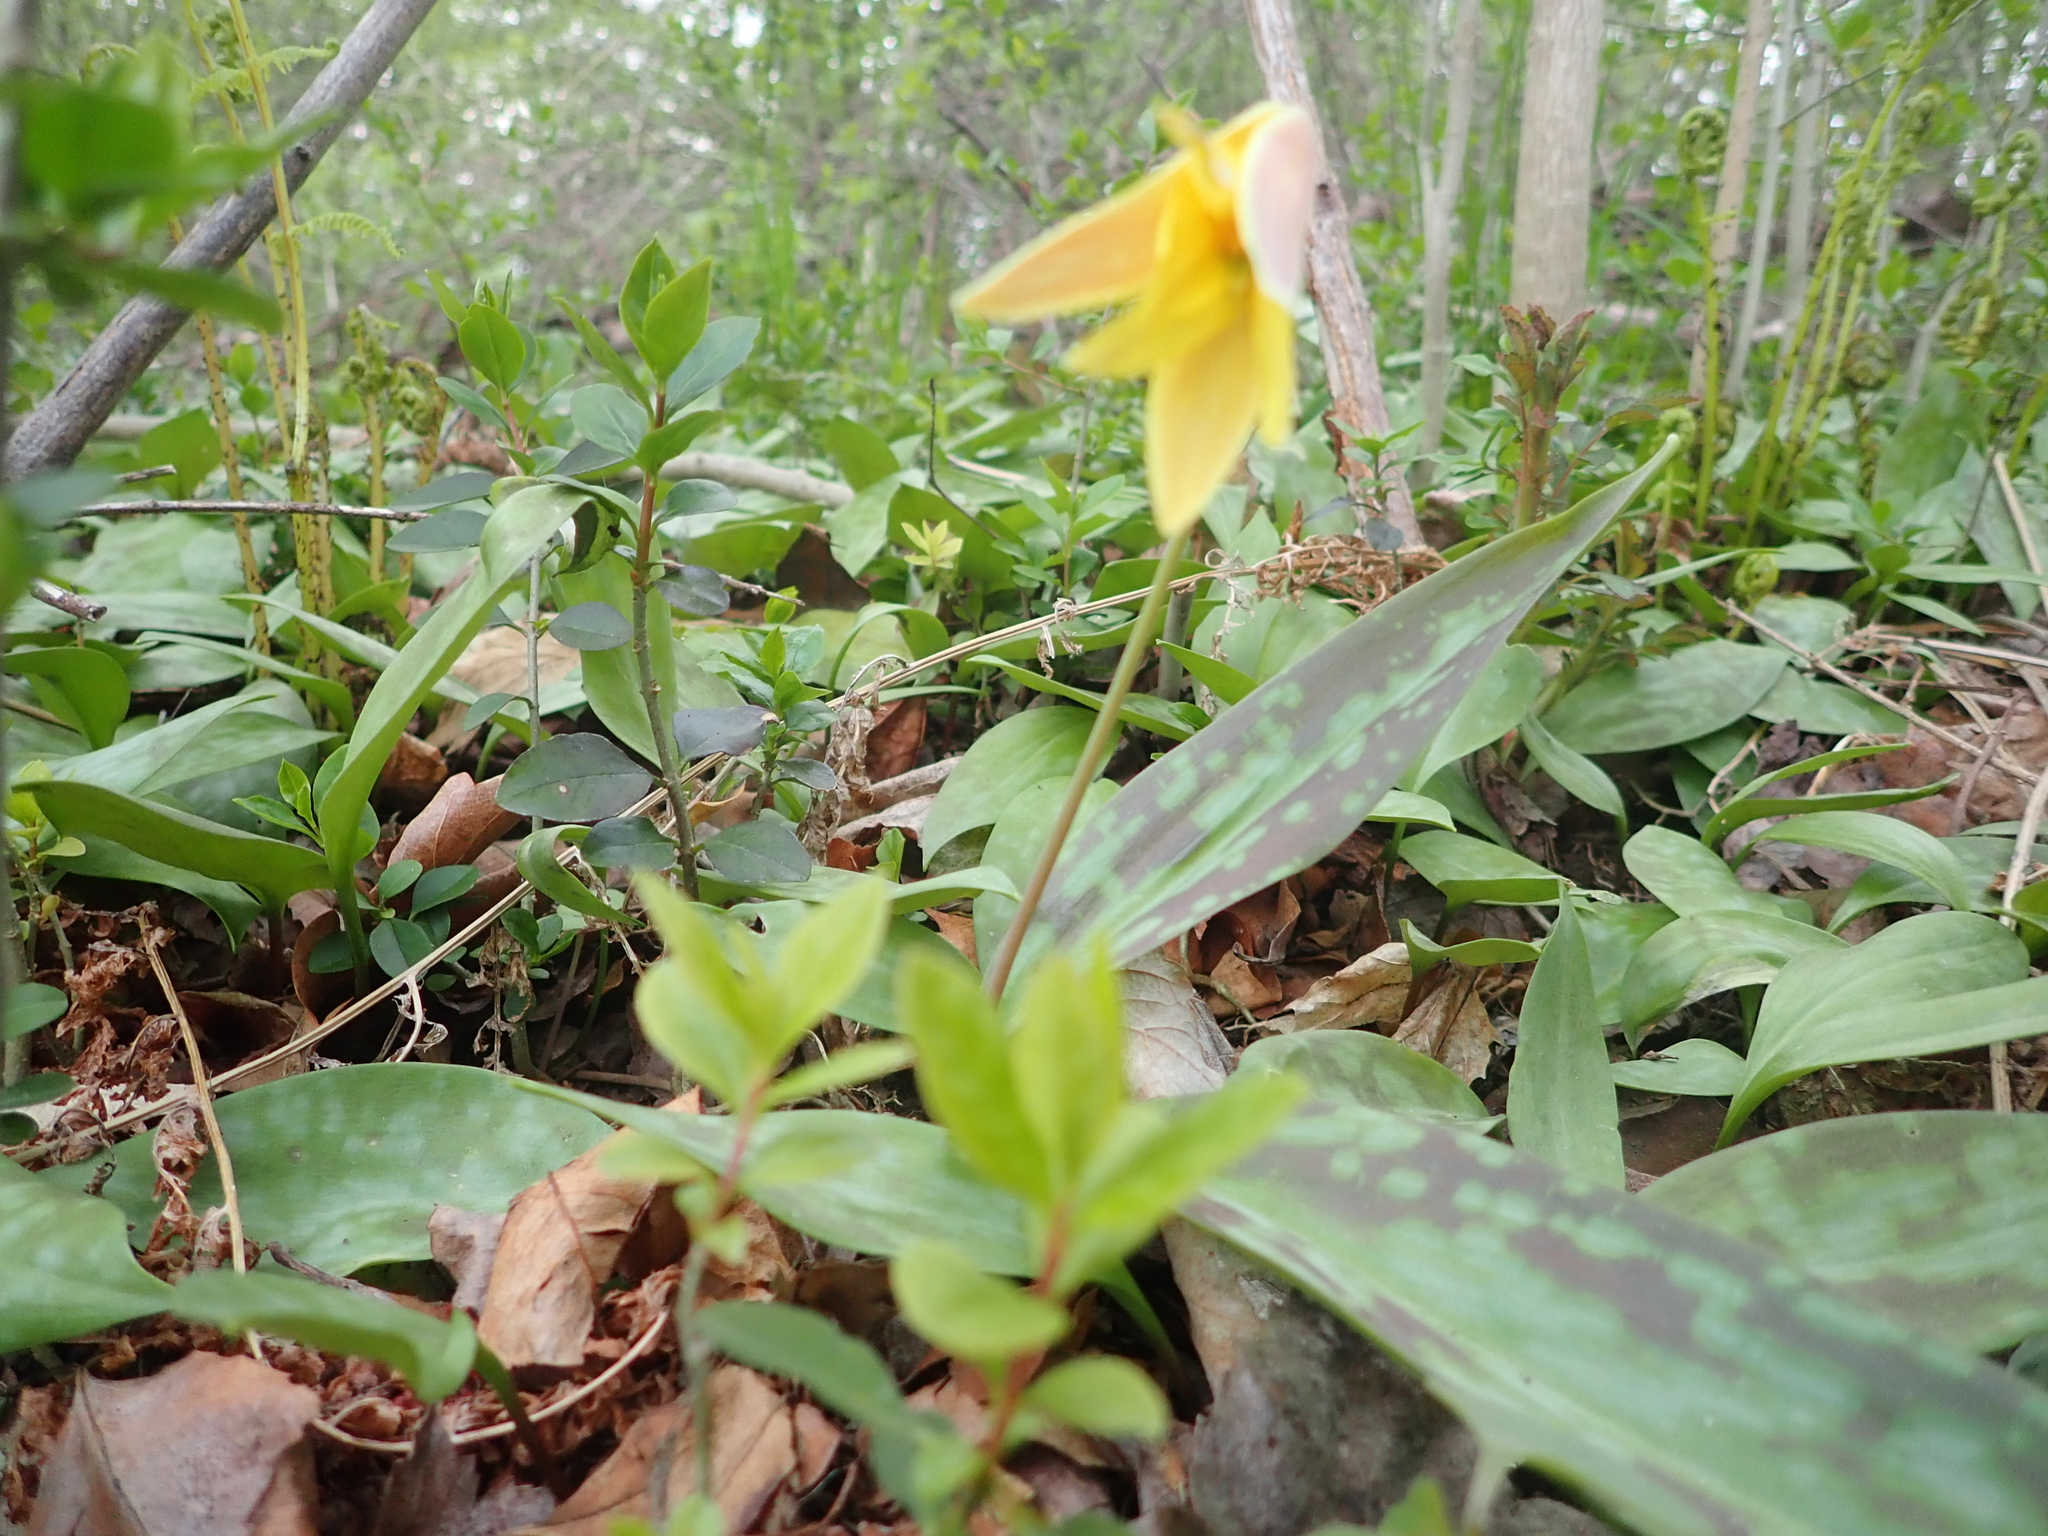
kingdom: Plantae
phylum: Tracheophyta
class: Liliopsida
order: Liliales
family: Liliaceae
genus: Erythronium
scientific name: Erythronium americanum
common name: Yellow adder's-tongue
